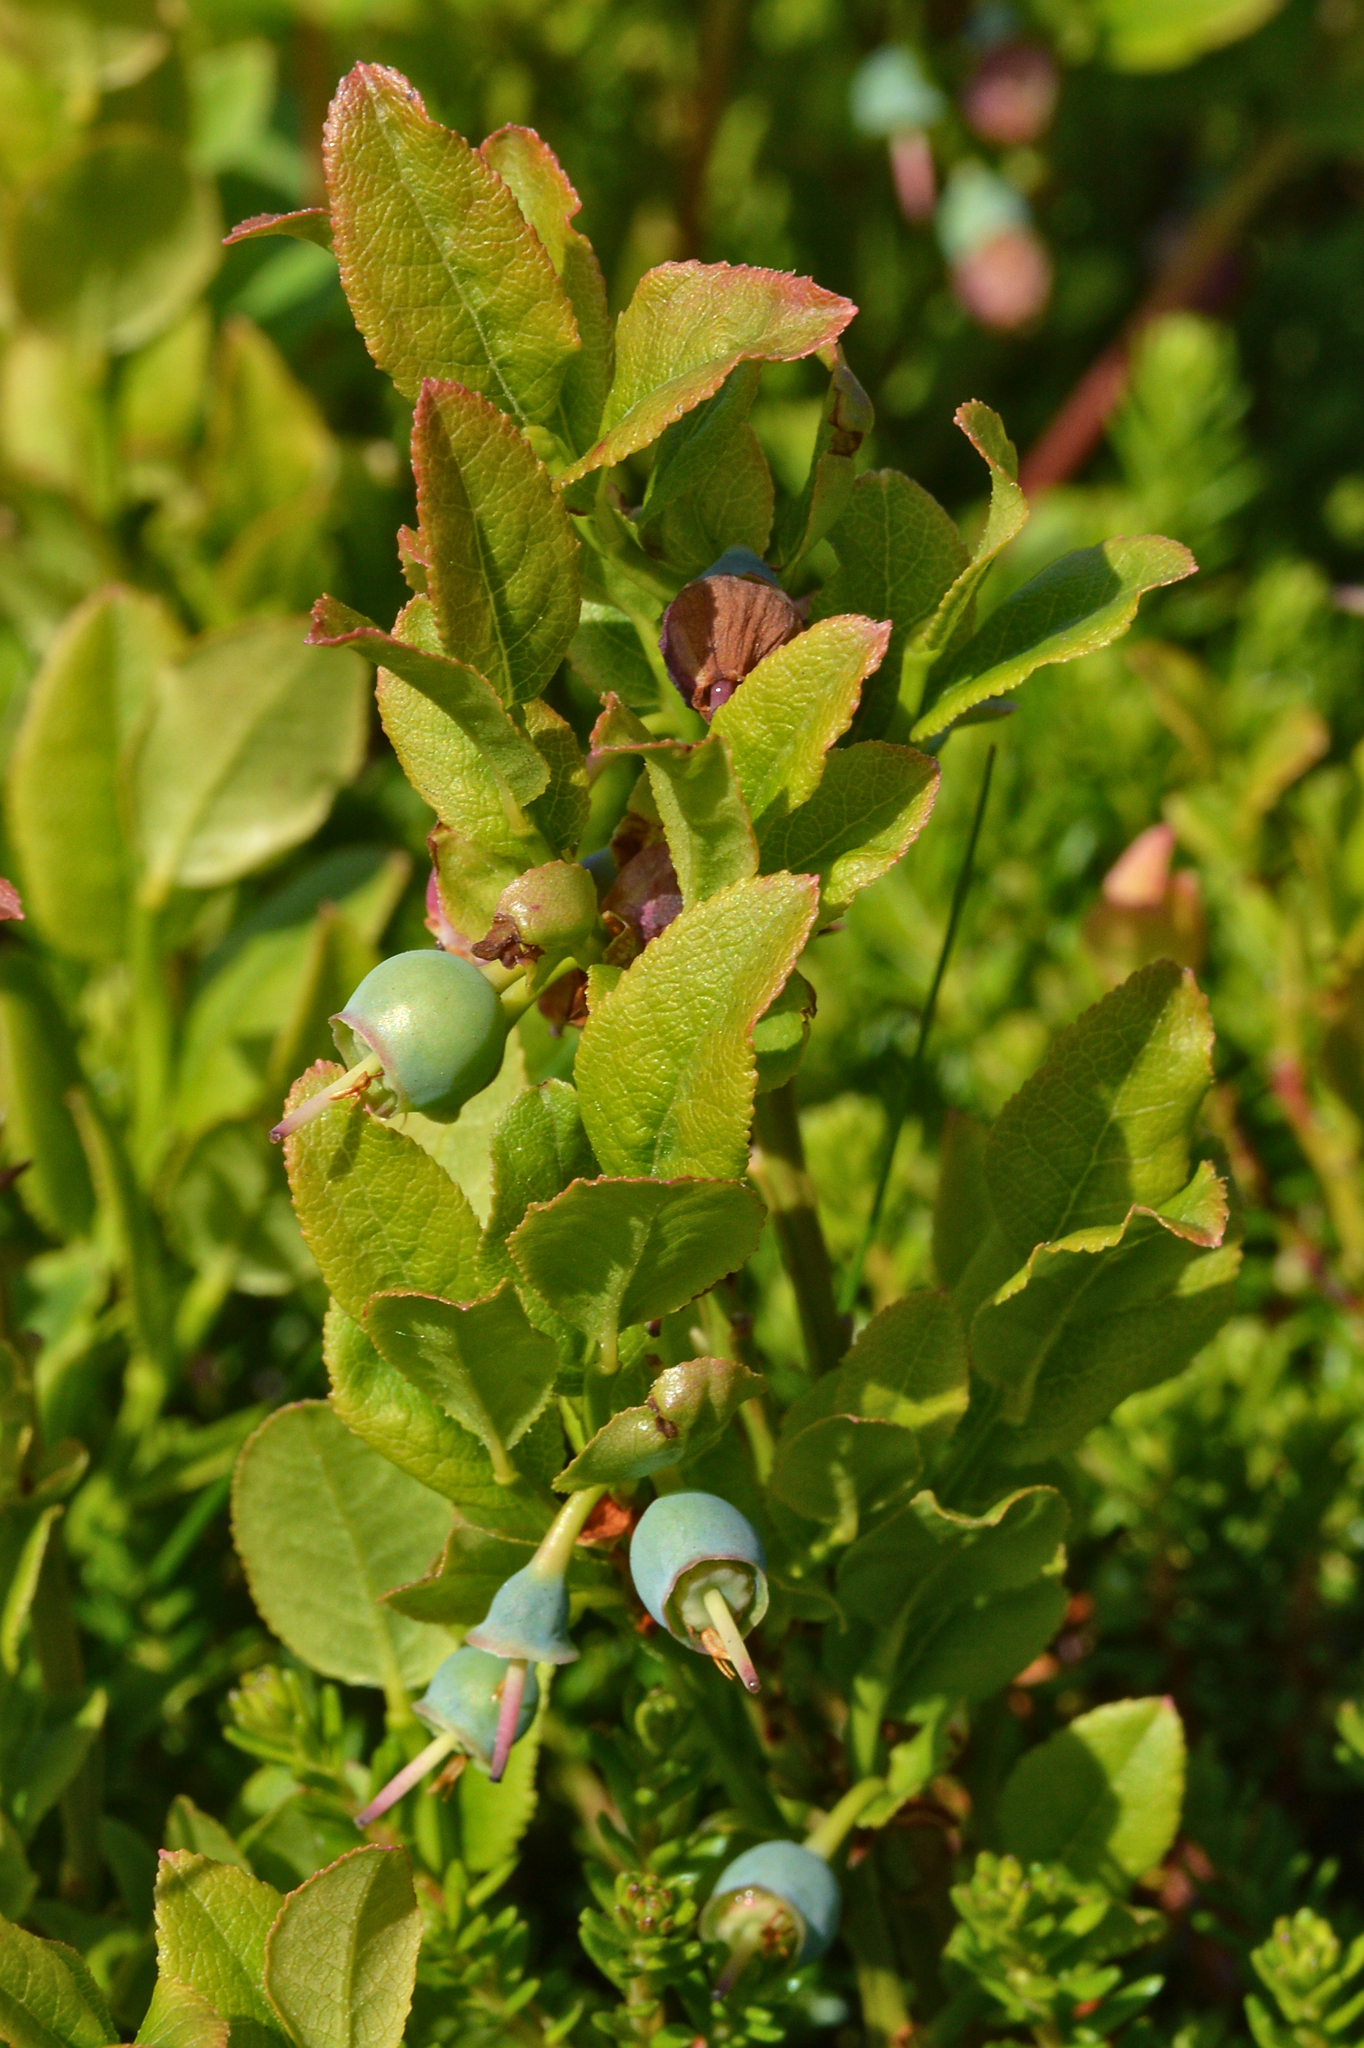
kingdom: Plantae
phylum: Tracheophyta
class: Magnoliopsida
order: Ericales
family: Ericaceae
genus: Vaccinium
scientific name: Vaccinium myrtillus
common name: Bilberry
